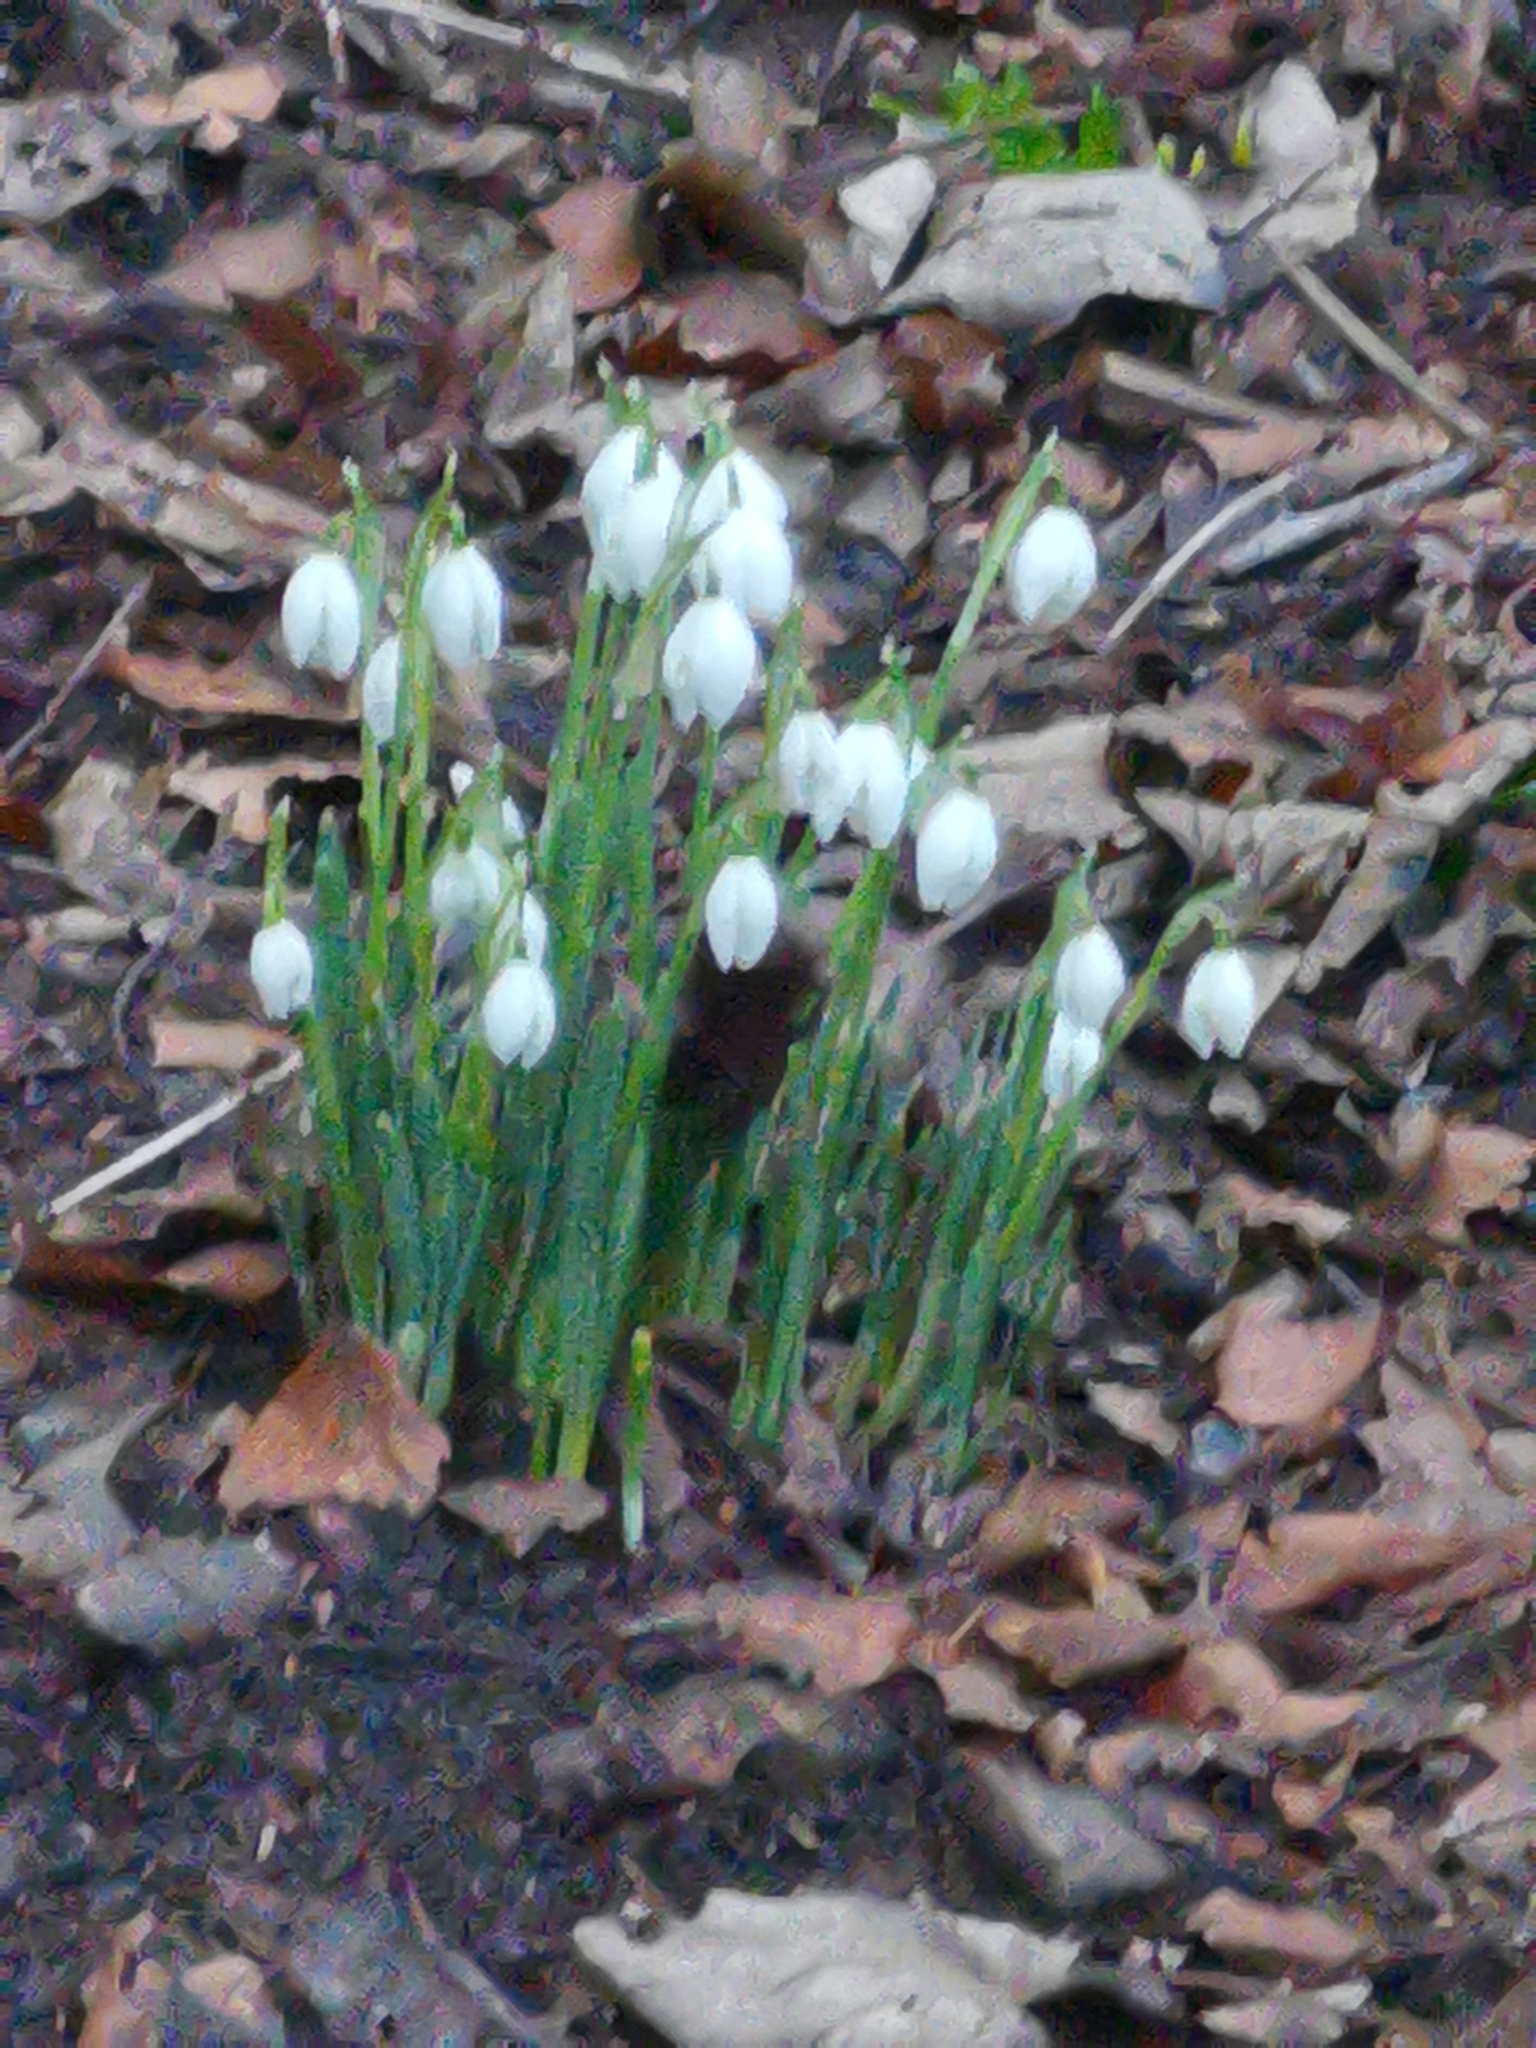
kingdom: Plantae
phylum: Tracheophyta
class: Liliopsida
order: Asparagales
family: Amaryllidaceae
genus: Galanthus
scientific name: Galanthus nivalis
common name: Snowdrop
